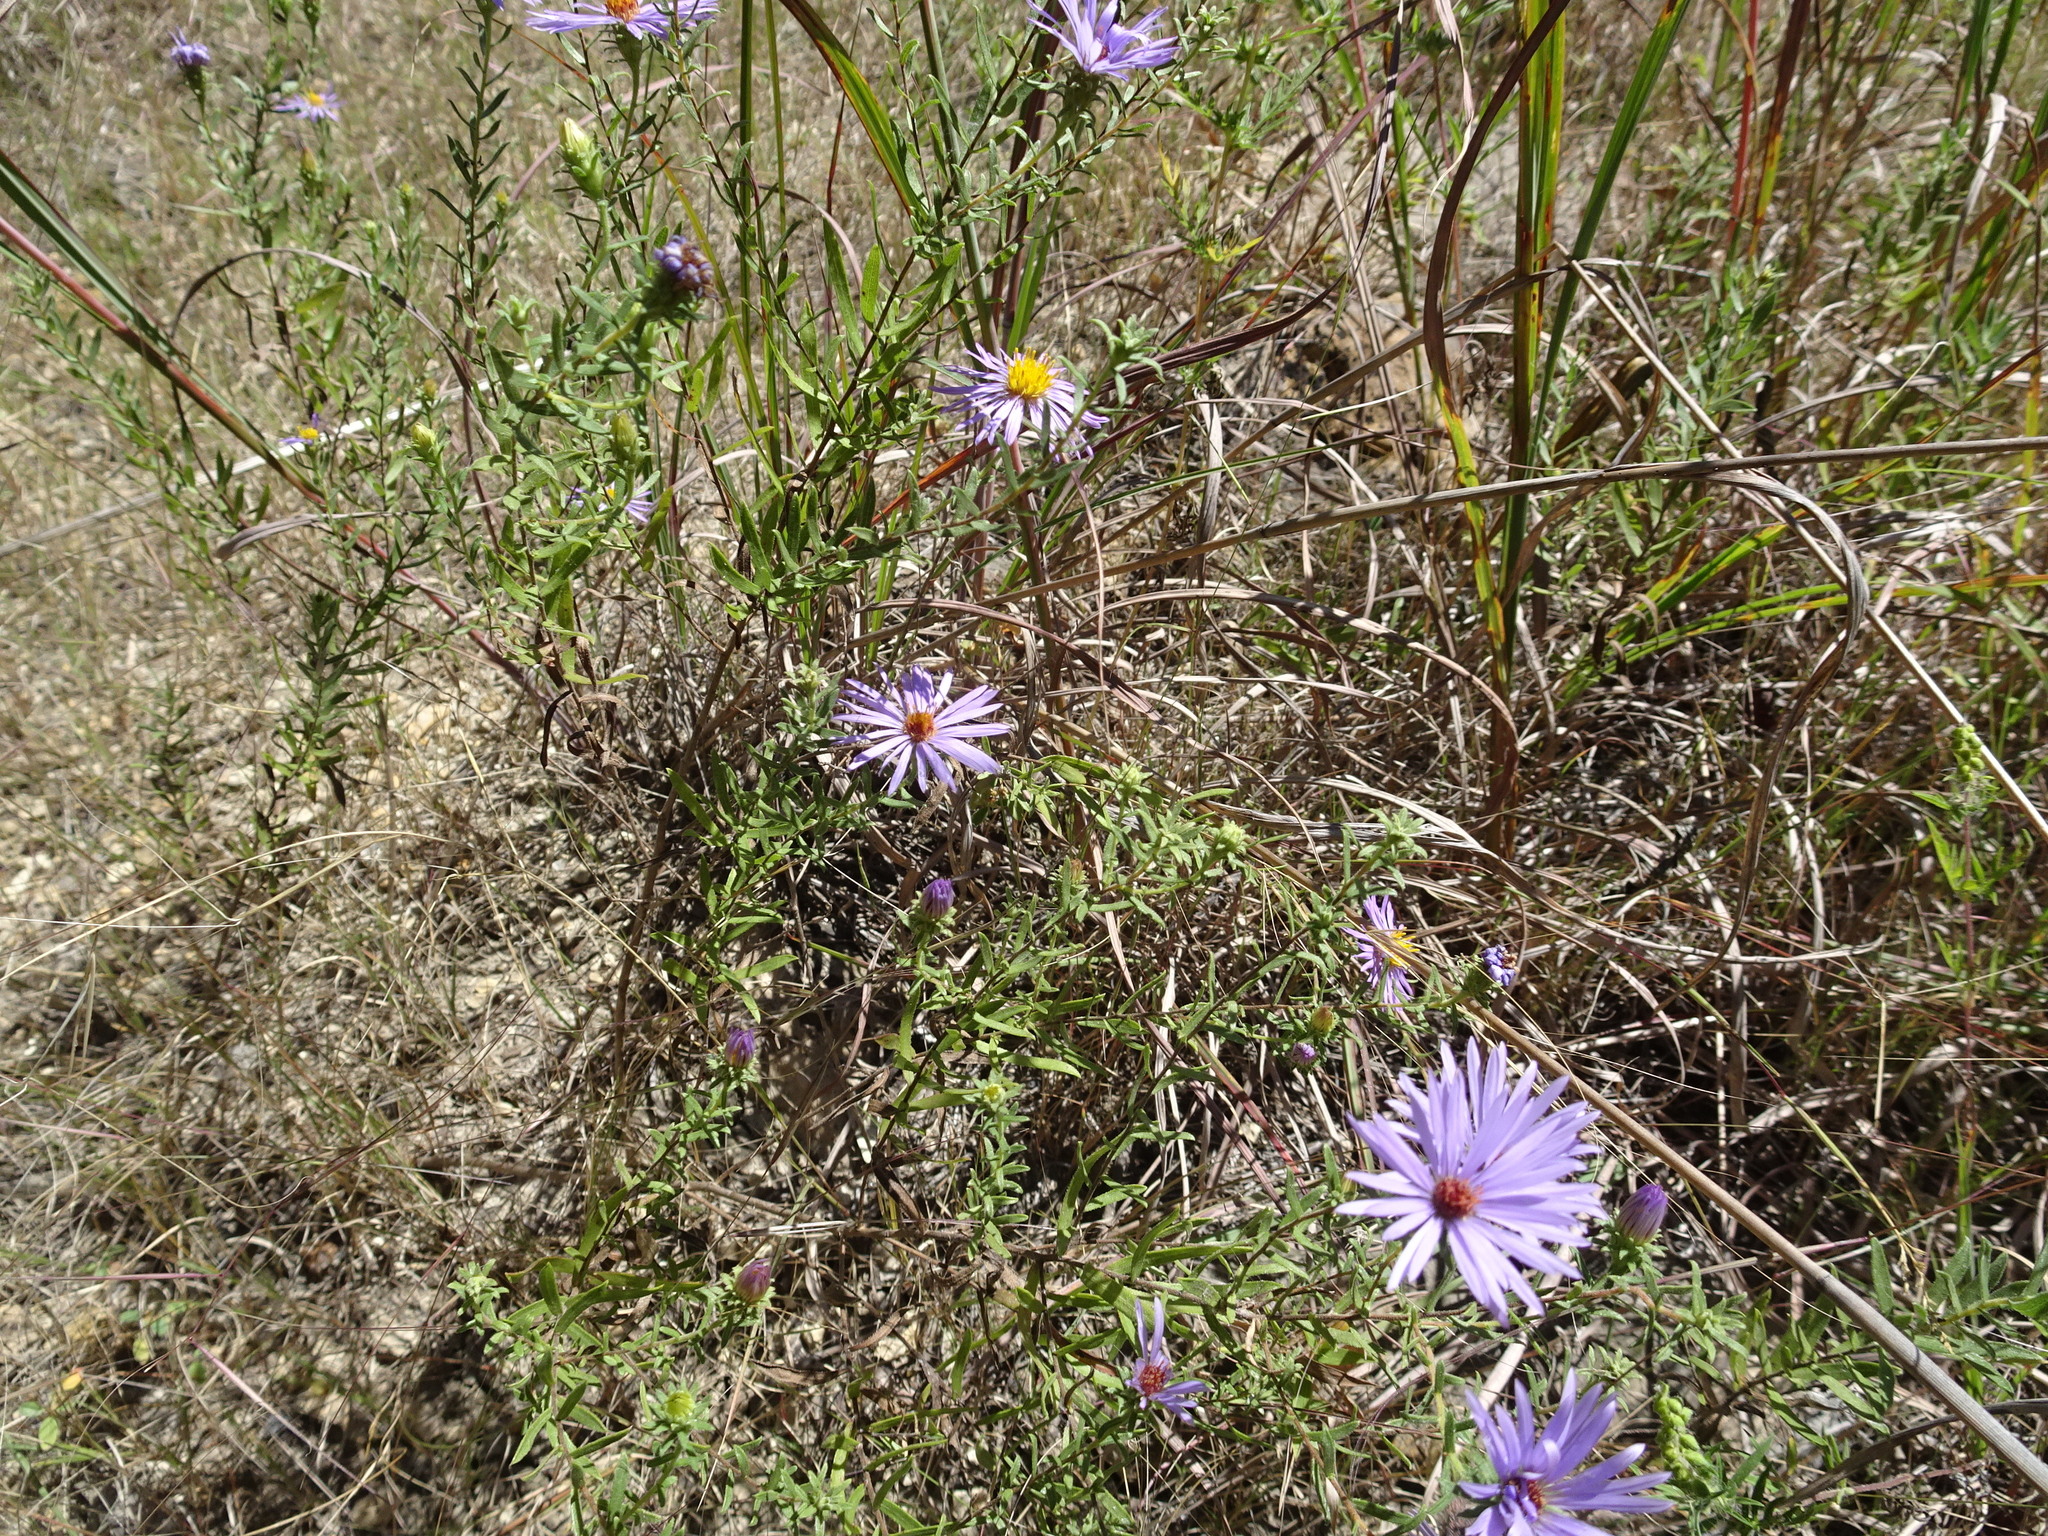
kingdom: Plantae
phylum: Tracheophyta
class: Magnoliopsida
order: Asterales
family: Asteraceae
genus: Symphyotrichum
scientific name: Symphyotrichum oblongifolium
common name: Aromatic aster
